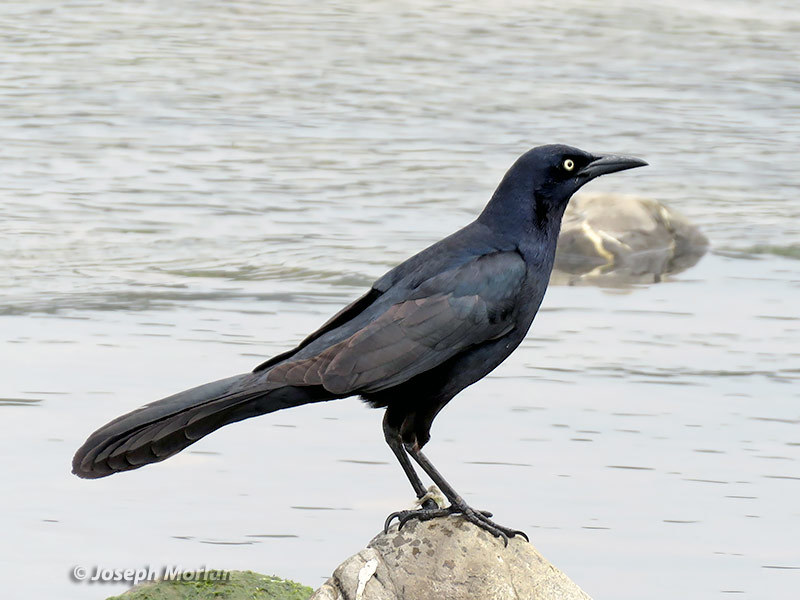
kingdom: Animalia
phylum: Chordata
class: Aves
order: Passeriformes
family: Icteridae
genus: Quiscalus
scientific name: Quiscalus mexicanus
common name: Great-tailed grackle
